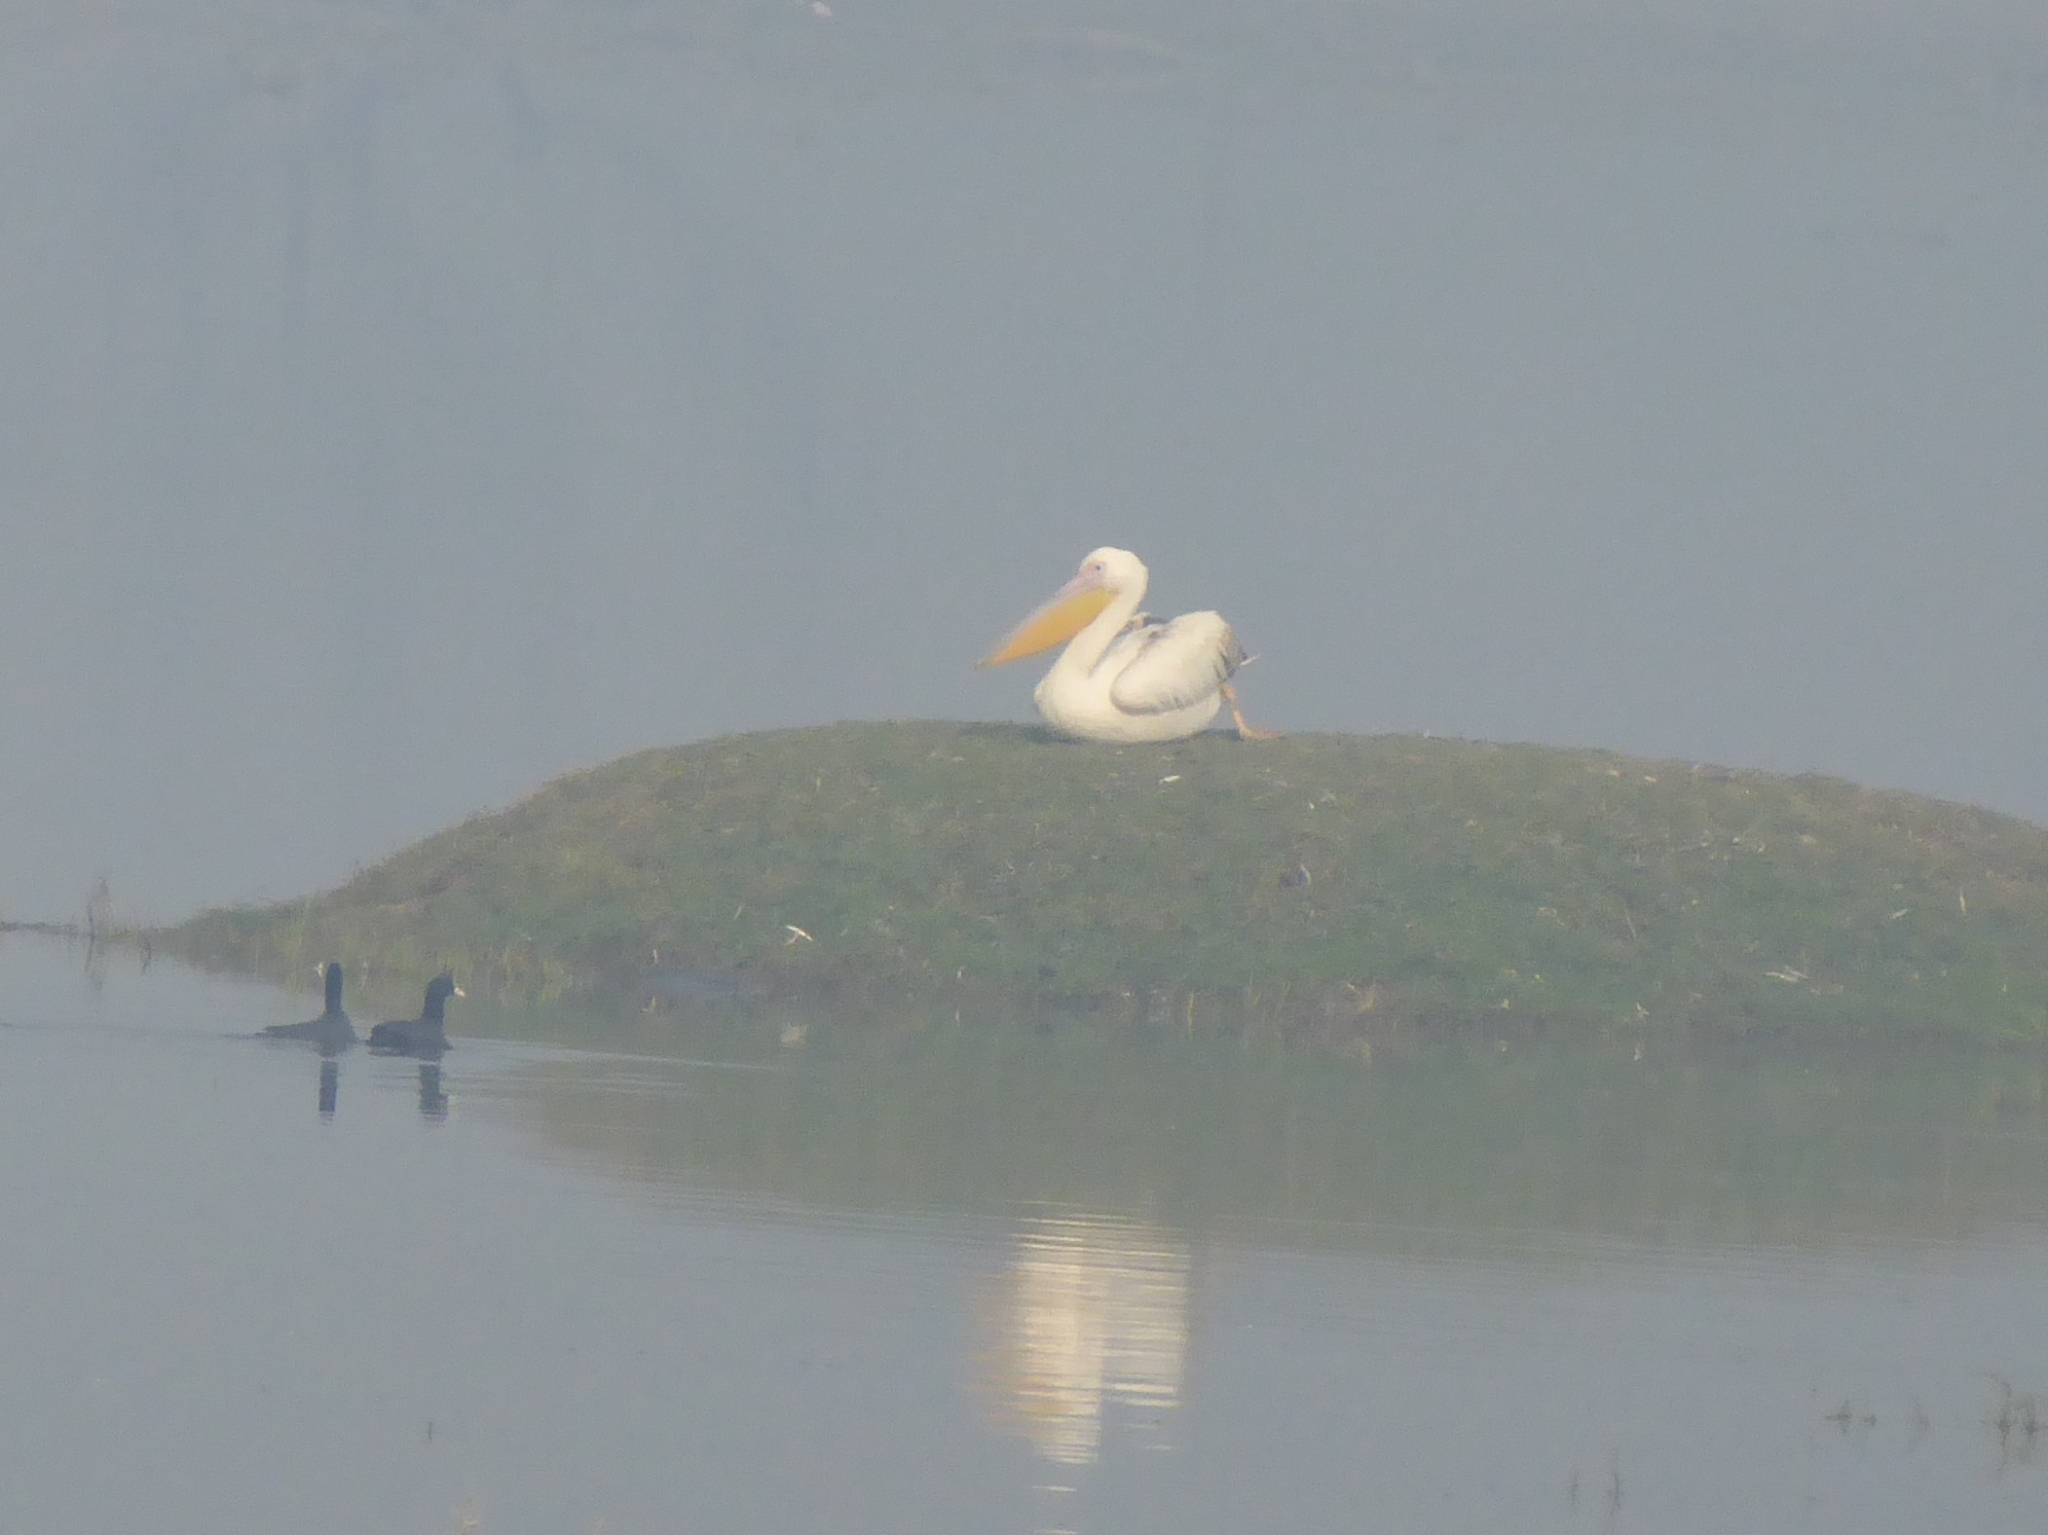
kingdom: Animalia
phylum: Chordata
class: Aves
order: Pelecaniformes
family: Pelecanidae
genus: Pelecanus
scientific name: Pelecanus onocrotalus
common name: Great white pelican
